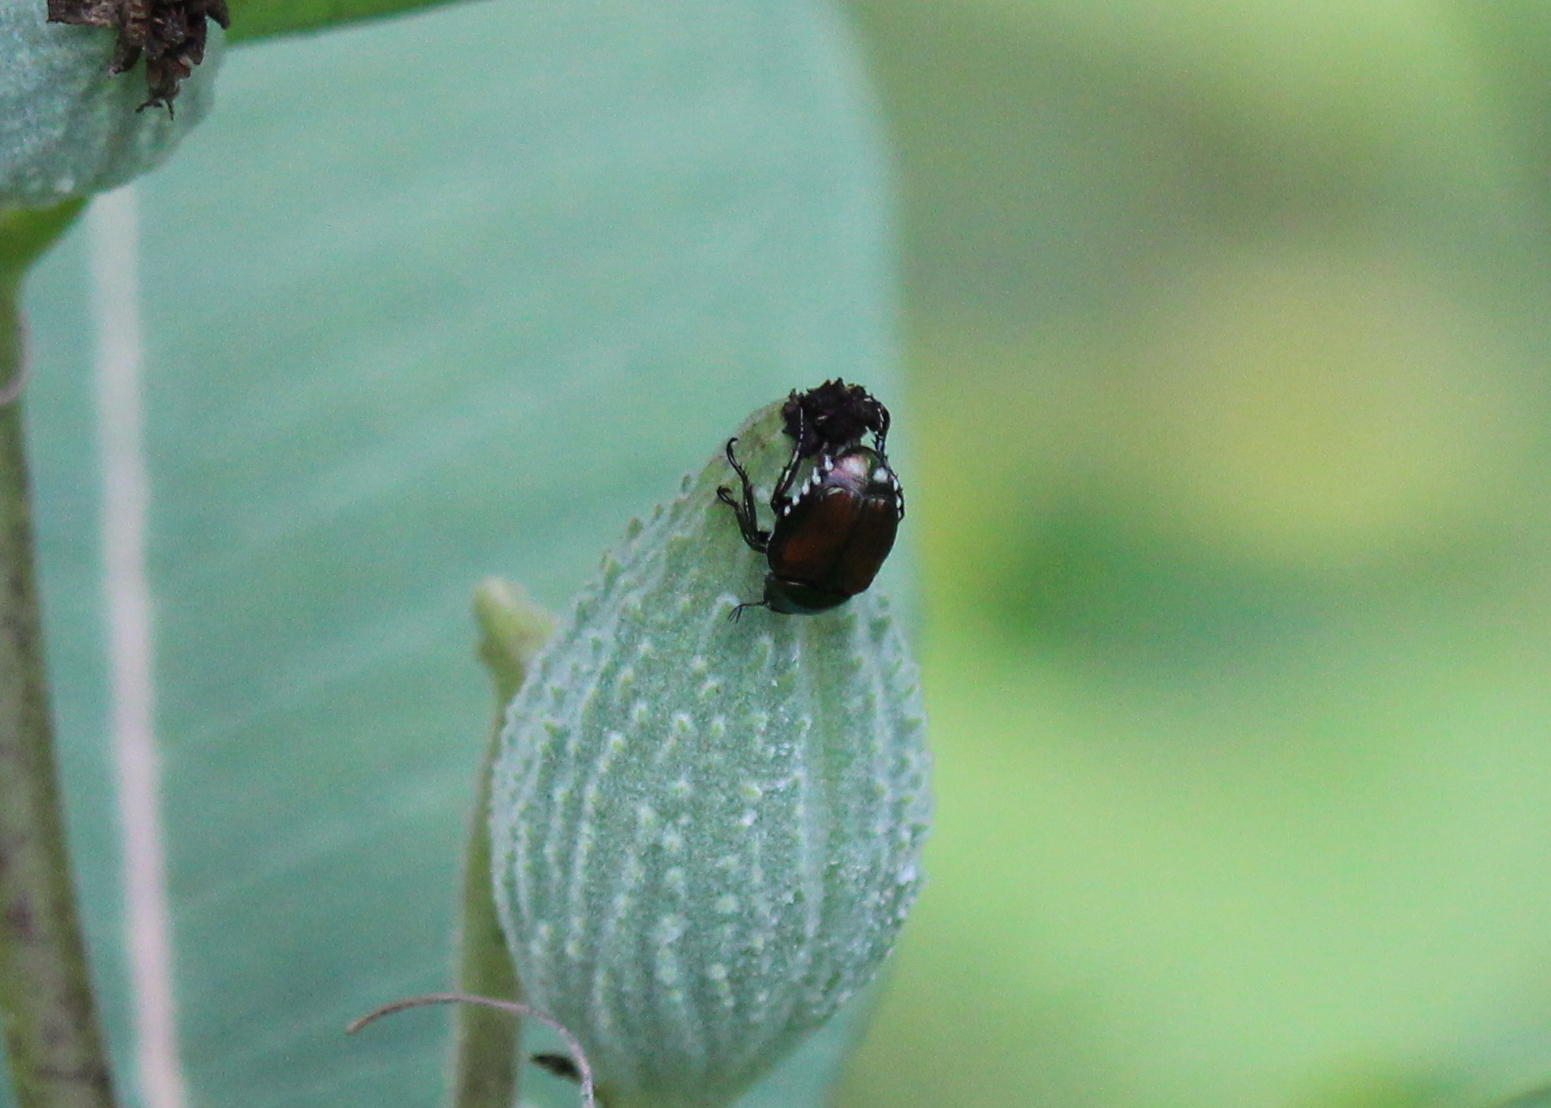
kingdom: Animalia
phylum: Arthropoda
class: Insecta
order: Coleoptera
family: Scarabaeidae
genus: Popillia
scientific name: Popillia japonica
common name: Japanese beetle
